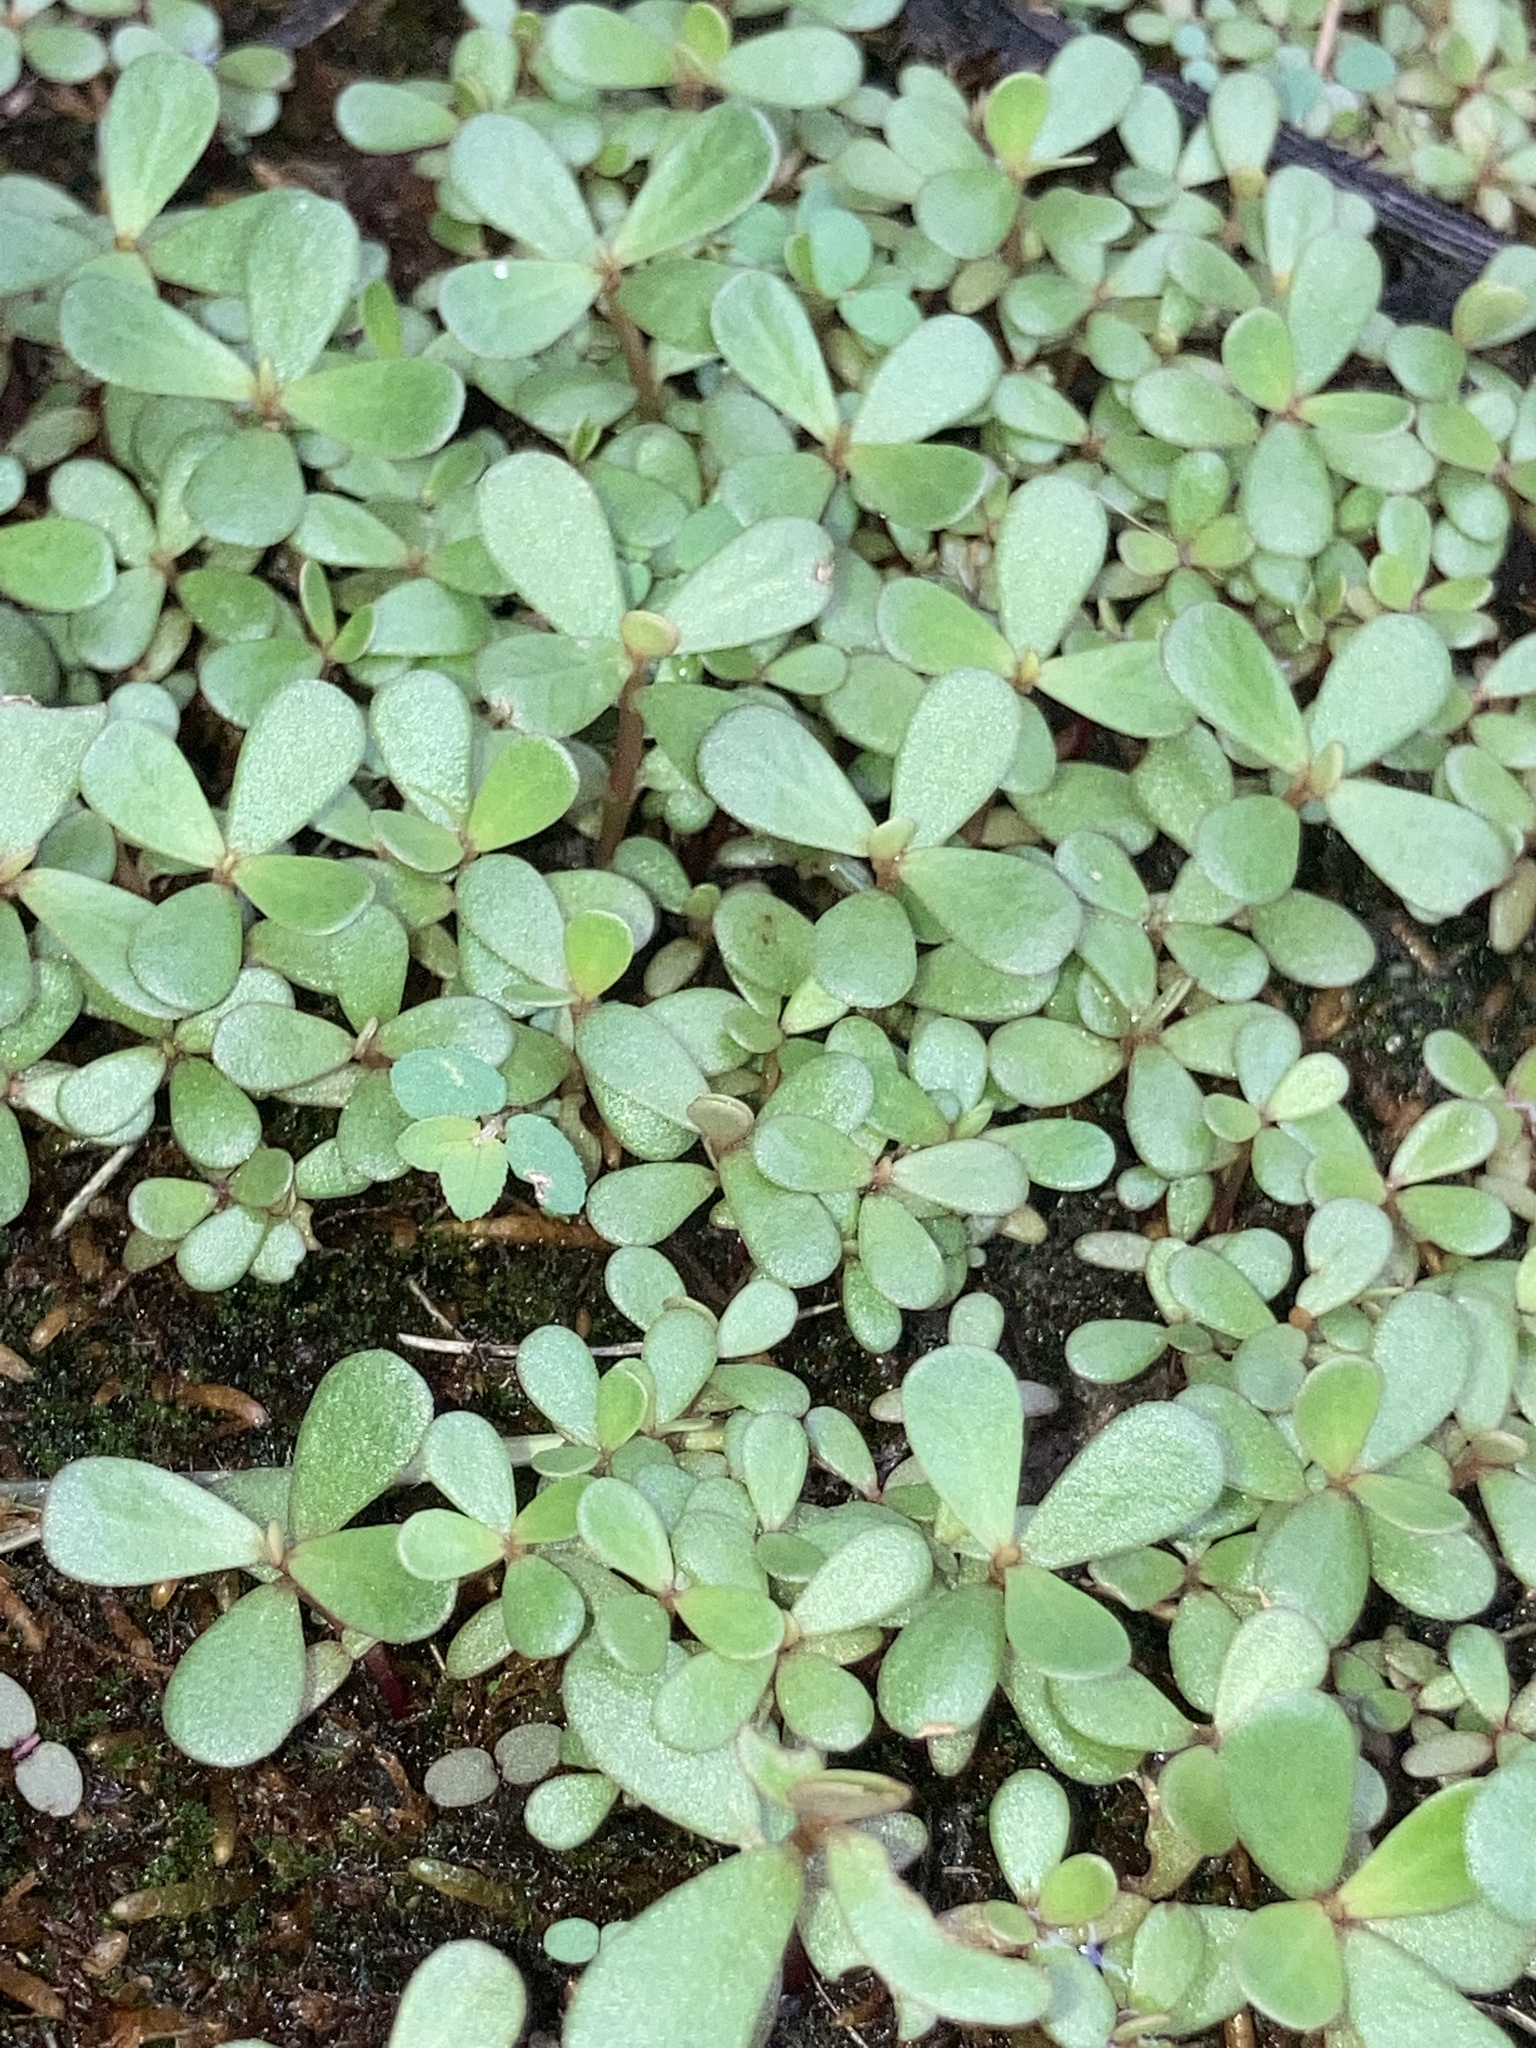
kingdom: Plantae
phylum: Tracheophyta
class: Magnoliopsida
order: Caryophyllales
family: Portulacaceae
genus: Portulaca
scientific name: Portulaca oleracea
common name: Common purslane
